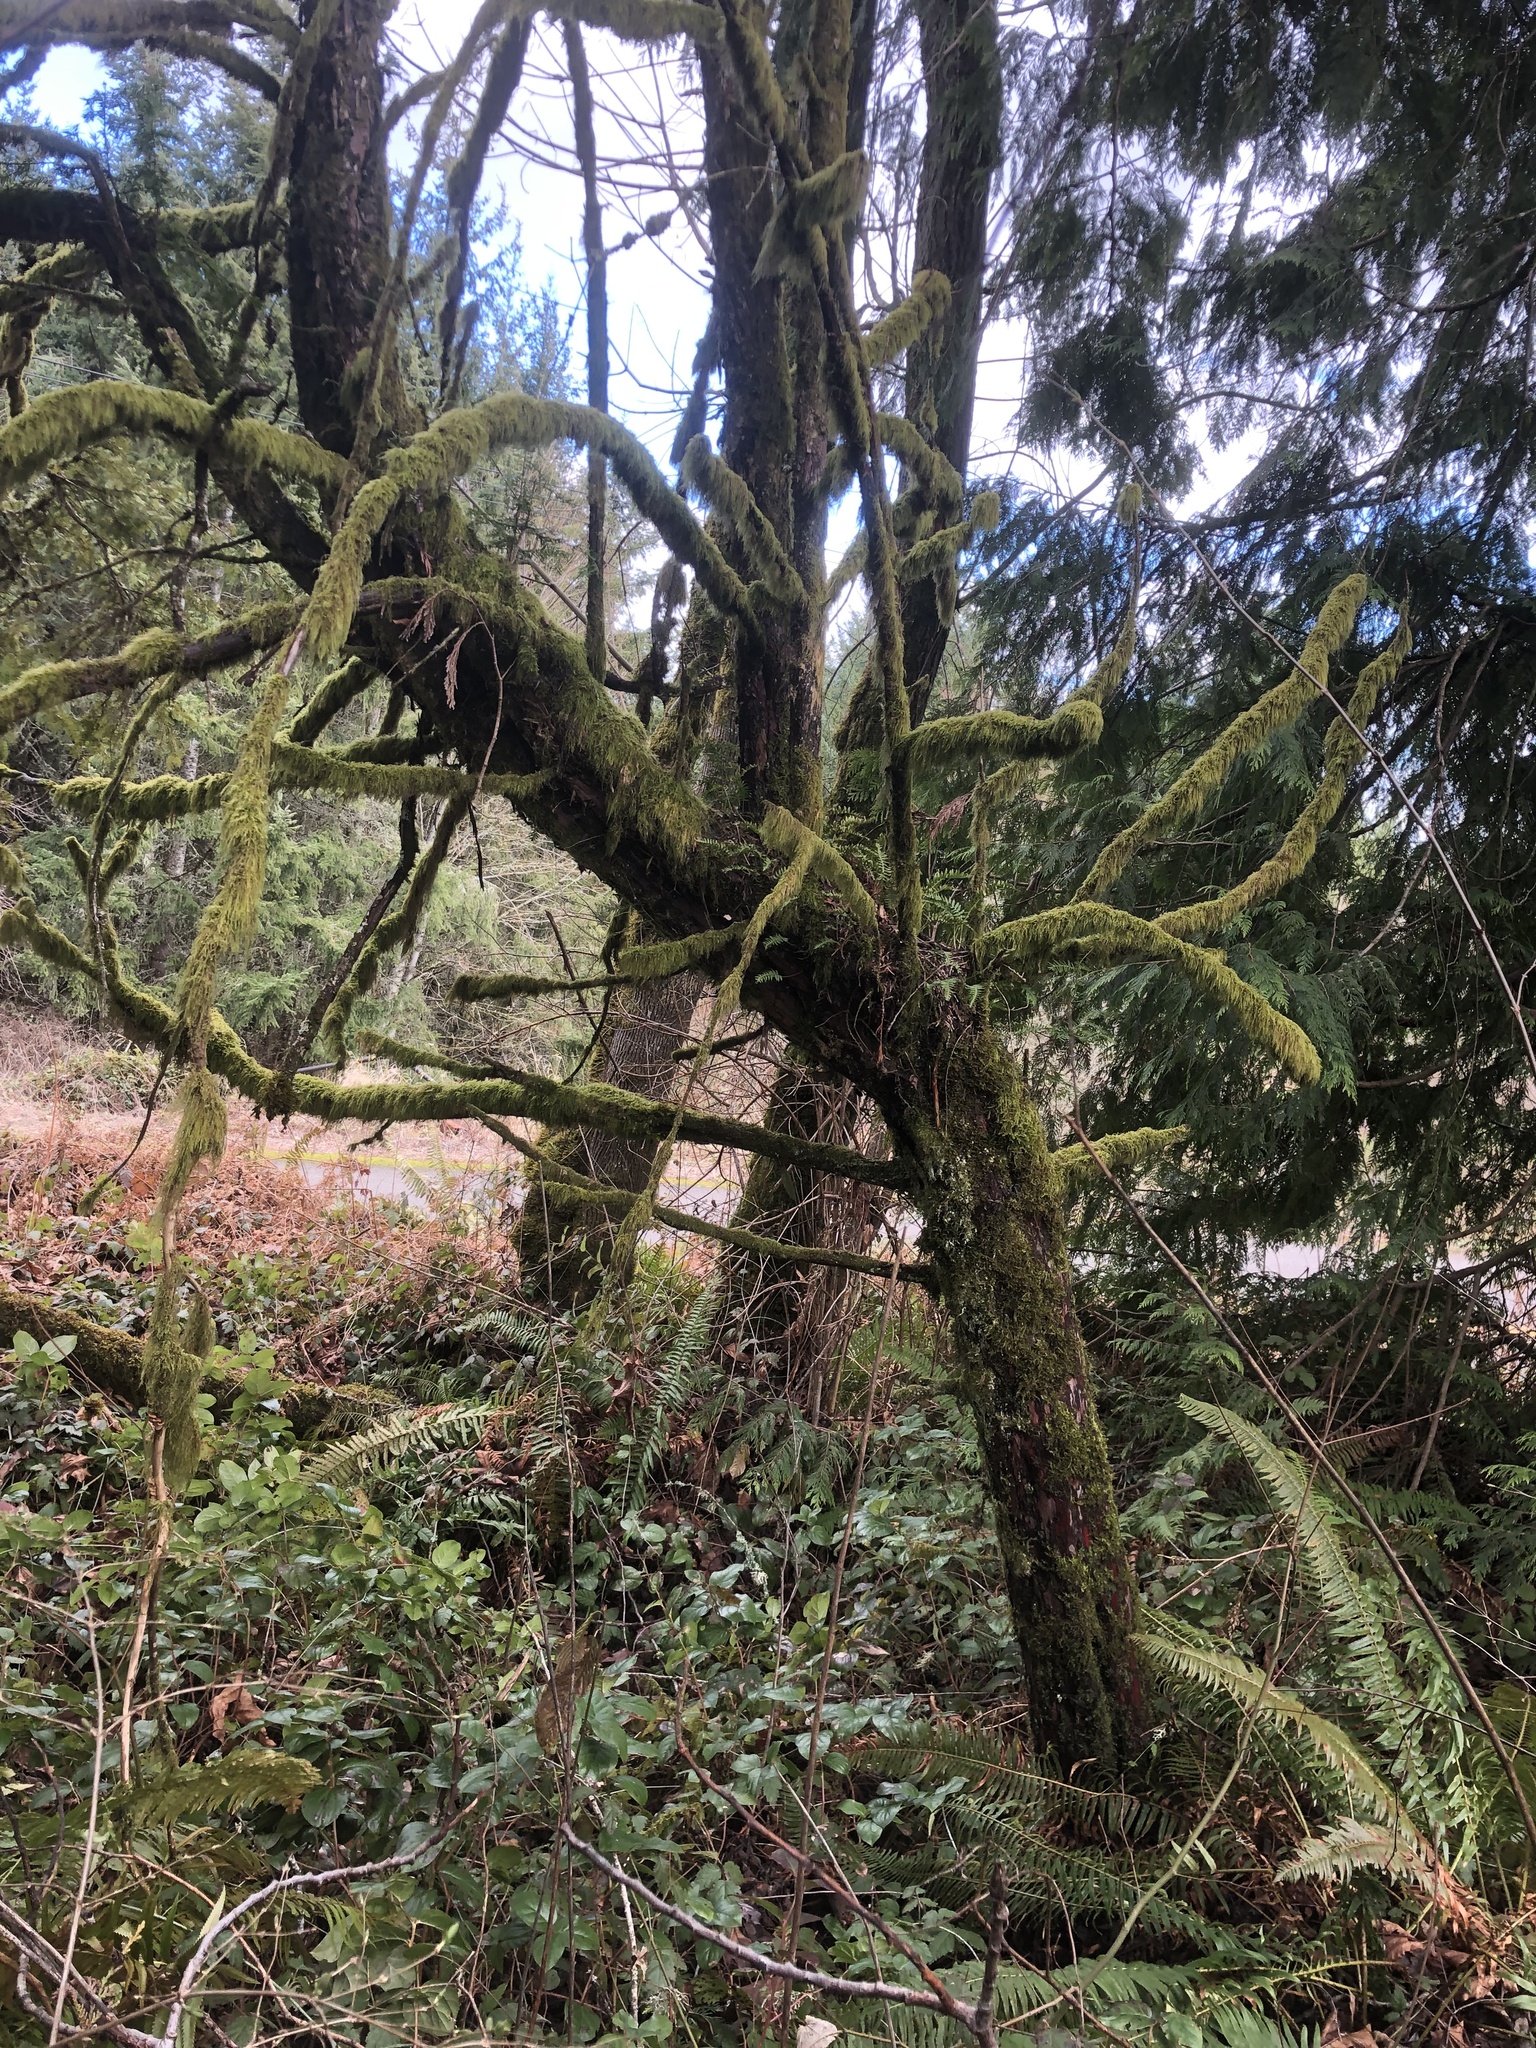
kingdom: Plantae
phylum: Tracheophyta
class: Pinopsida
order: Pinales
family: Taxaceae
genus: Taxus
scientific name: Taxus brevifolia
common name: Pacific yew
